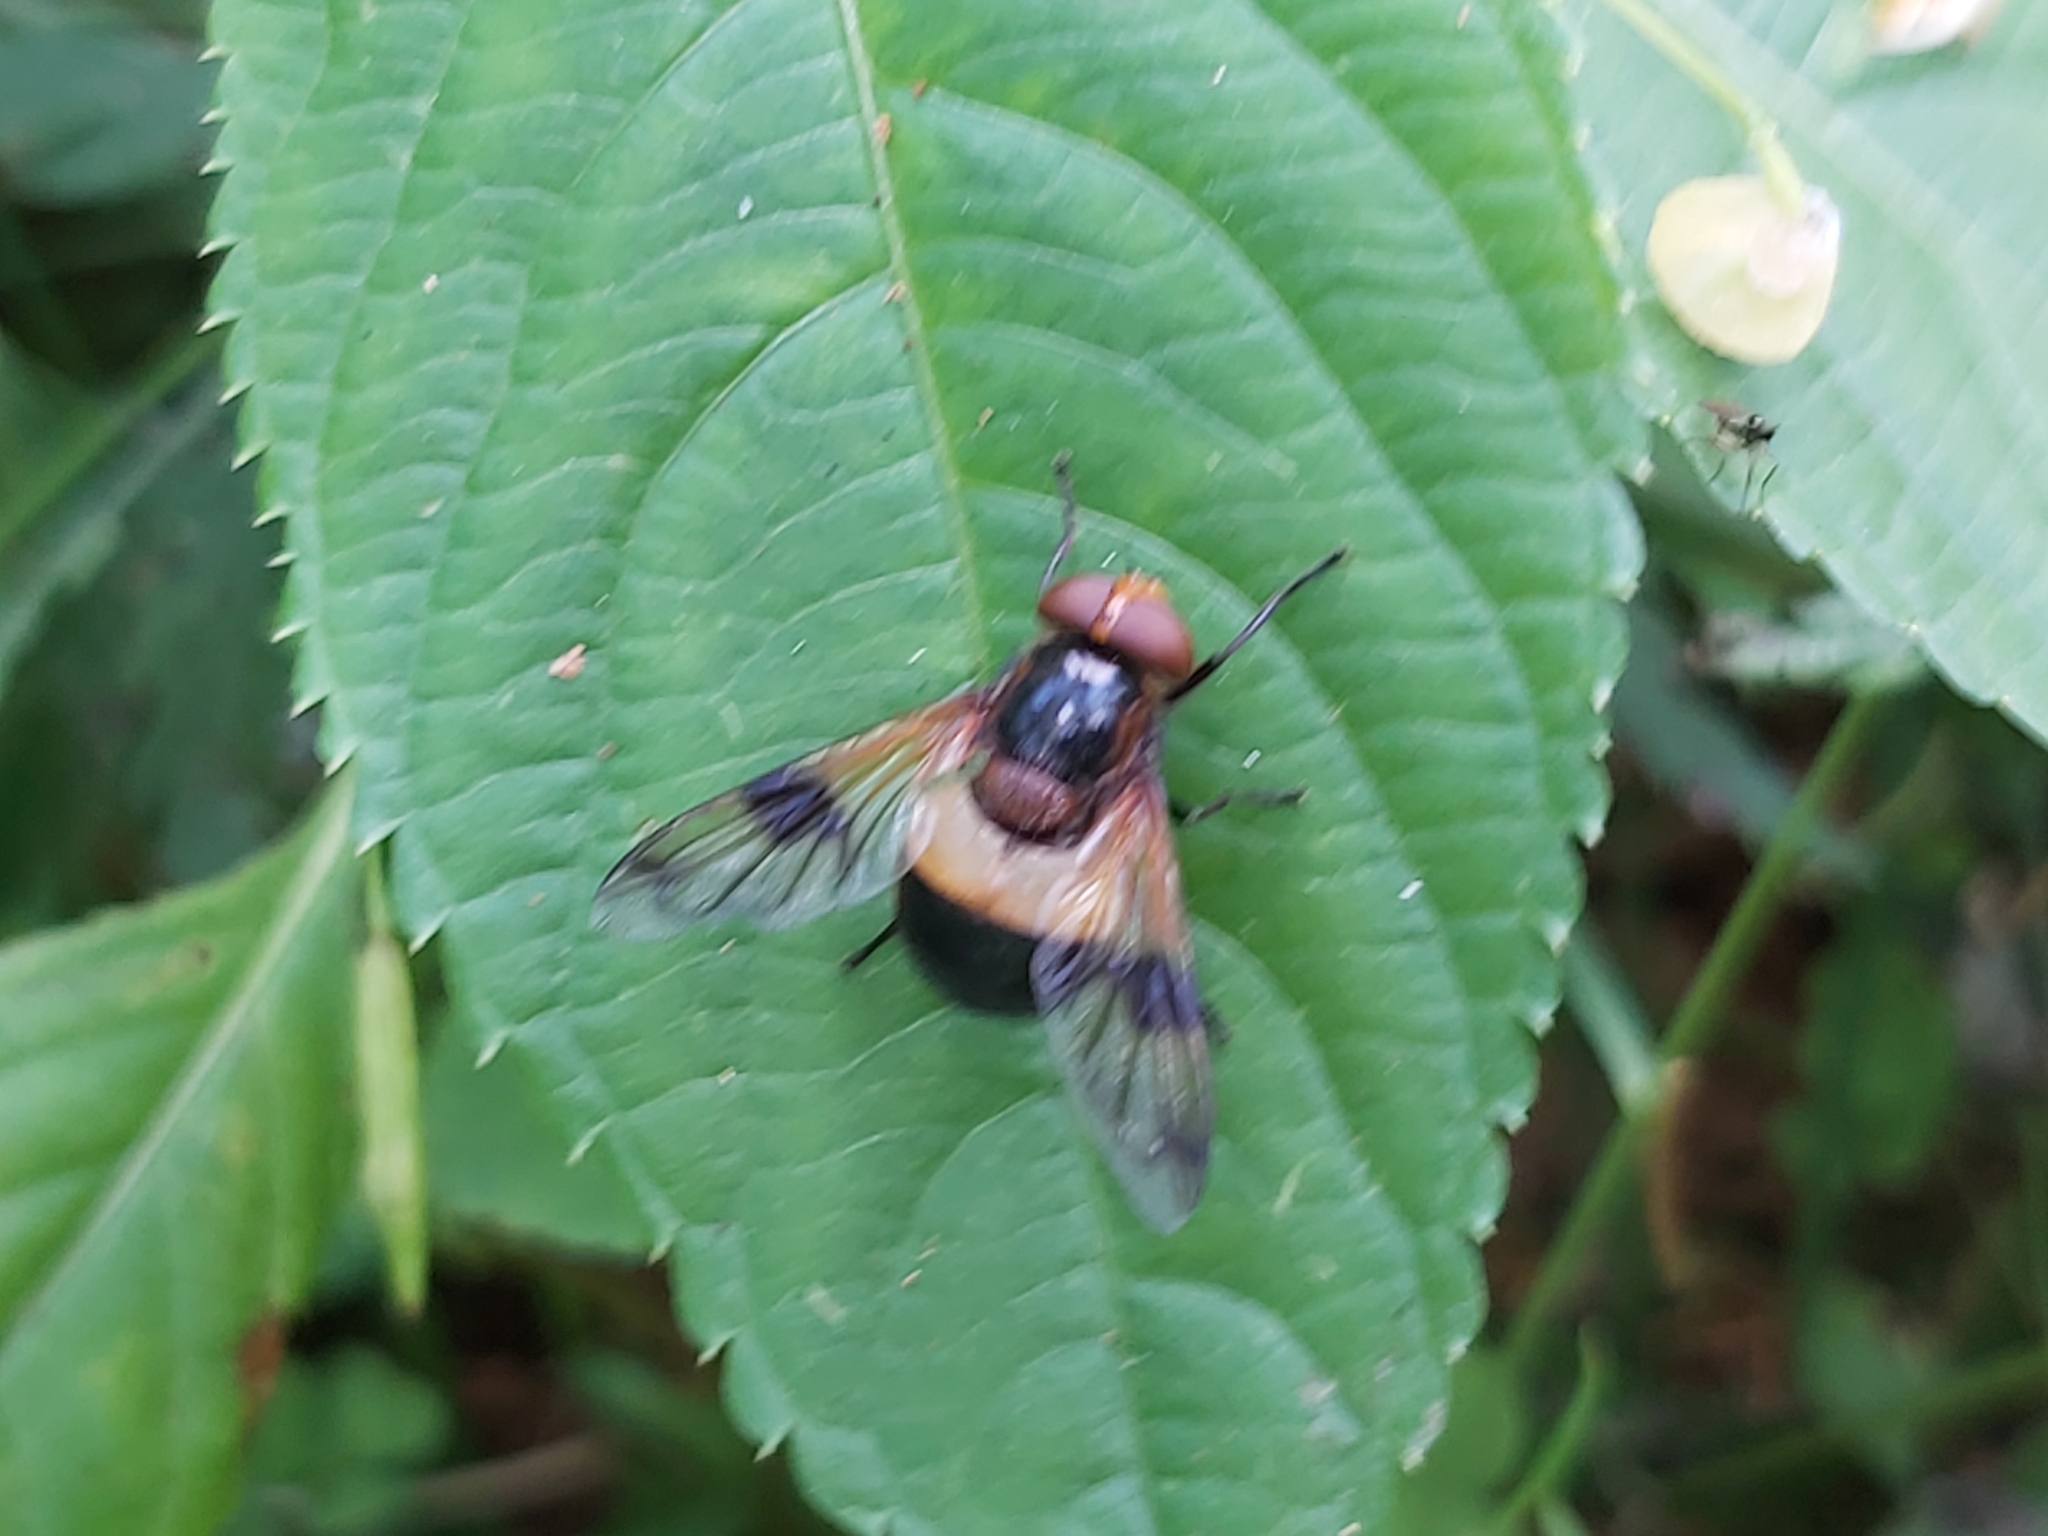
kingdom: Animalia
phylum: Arthropoda
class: Insecta
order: Diptera
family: Syrphidae
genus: Volucella
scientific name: Volucella pellucens
